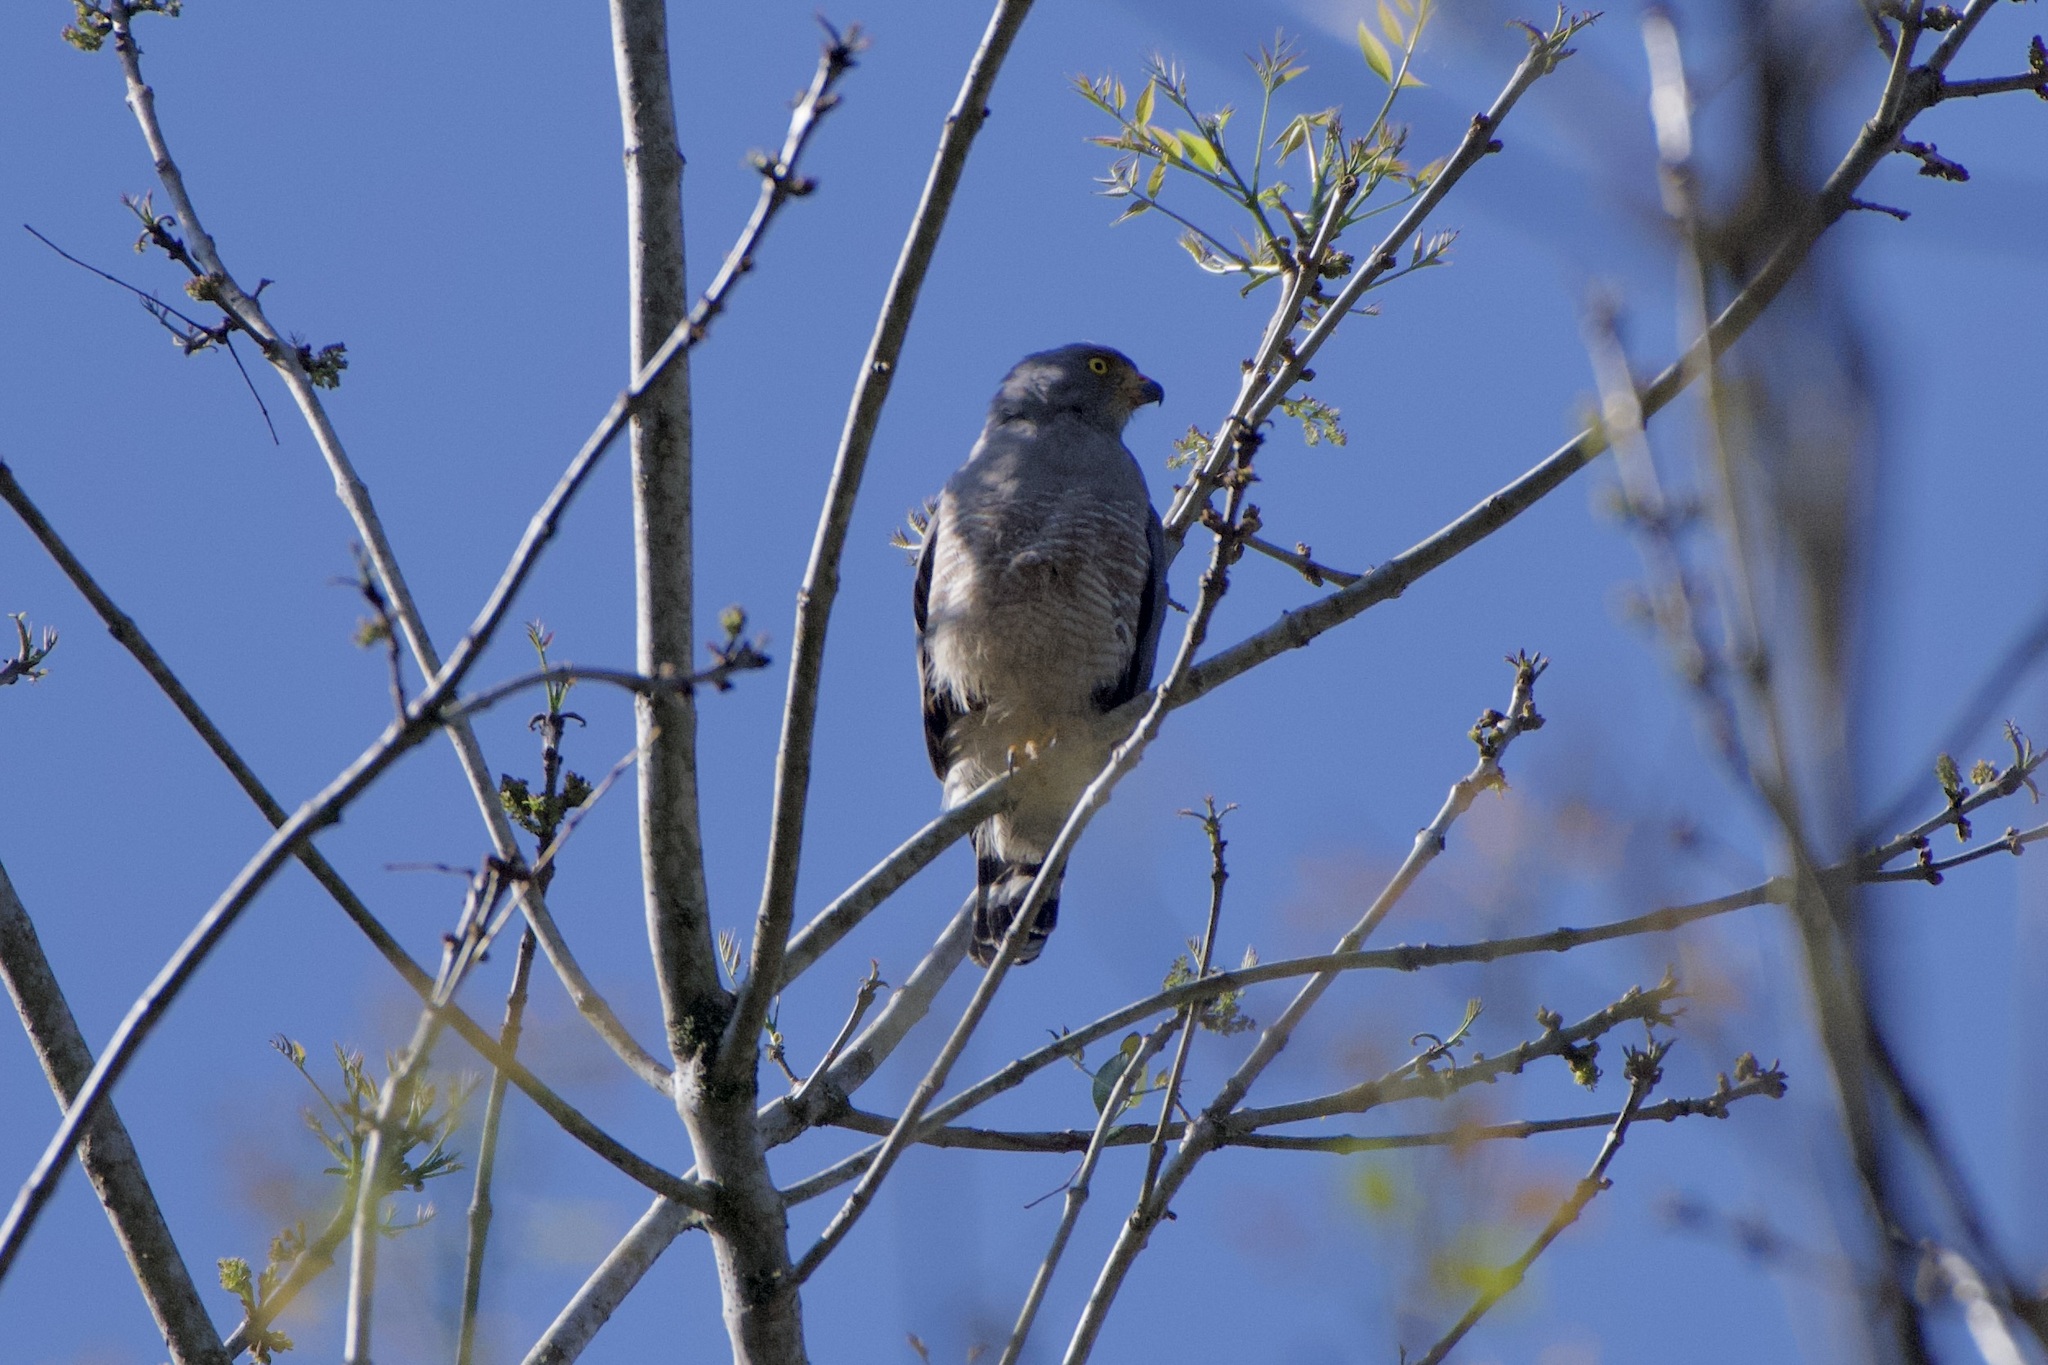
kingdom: Animalia
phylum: Chordata
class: Aves
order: Accipitriformes
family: Accipitridae
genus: Rupornis
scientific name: Rupornis magnirostris
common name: Roadside hawk
